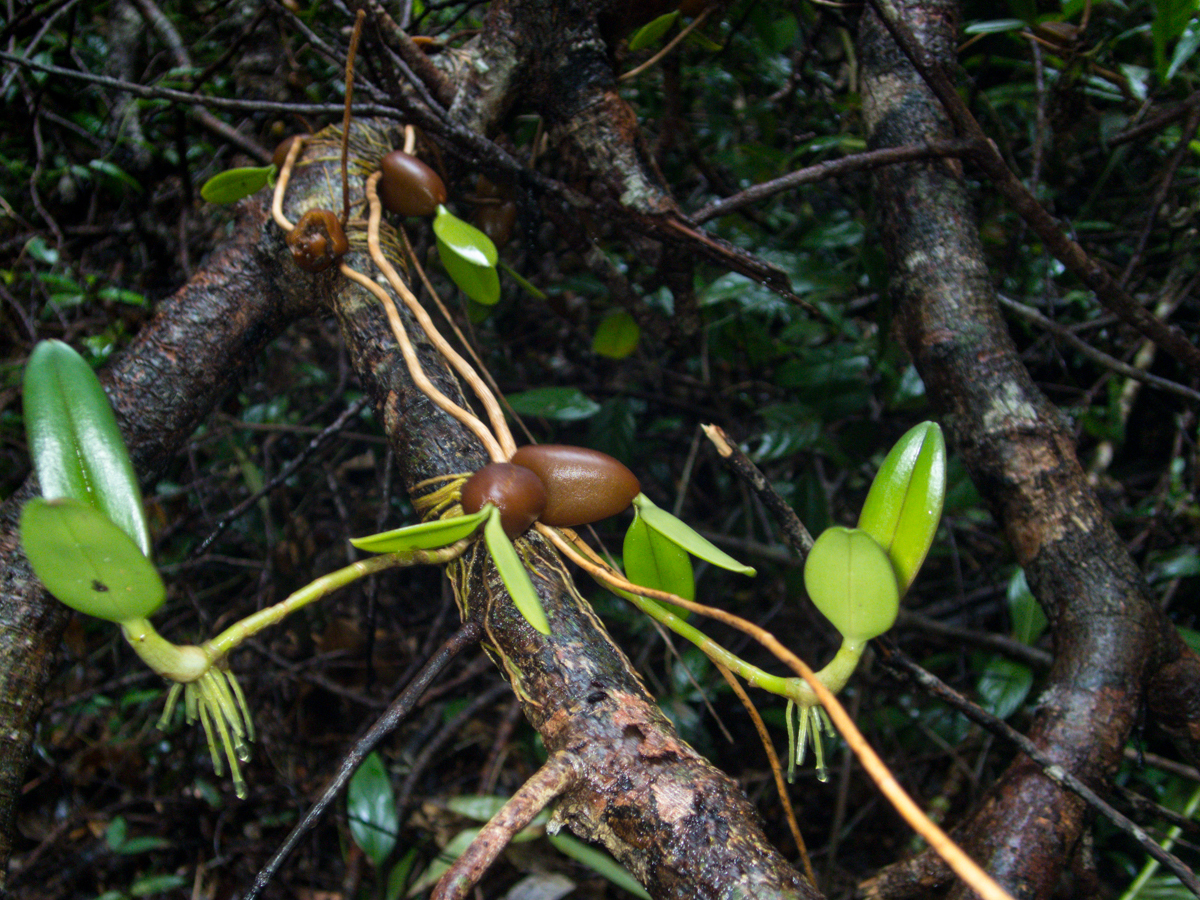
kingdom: Plantae
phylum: Tracheophyta
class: Liliopsida
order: Asparagales
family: Orchidaceae
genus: Bulbophyllum
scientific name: Bulbophyllum blepharistes
